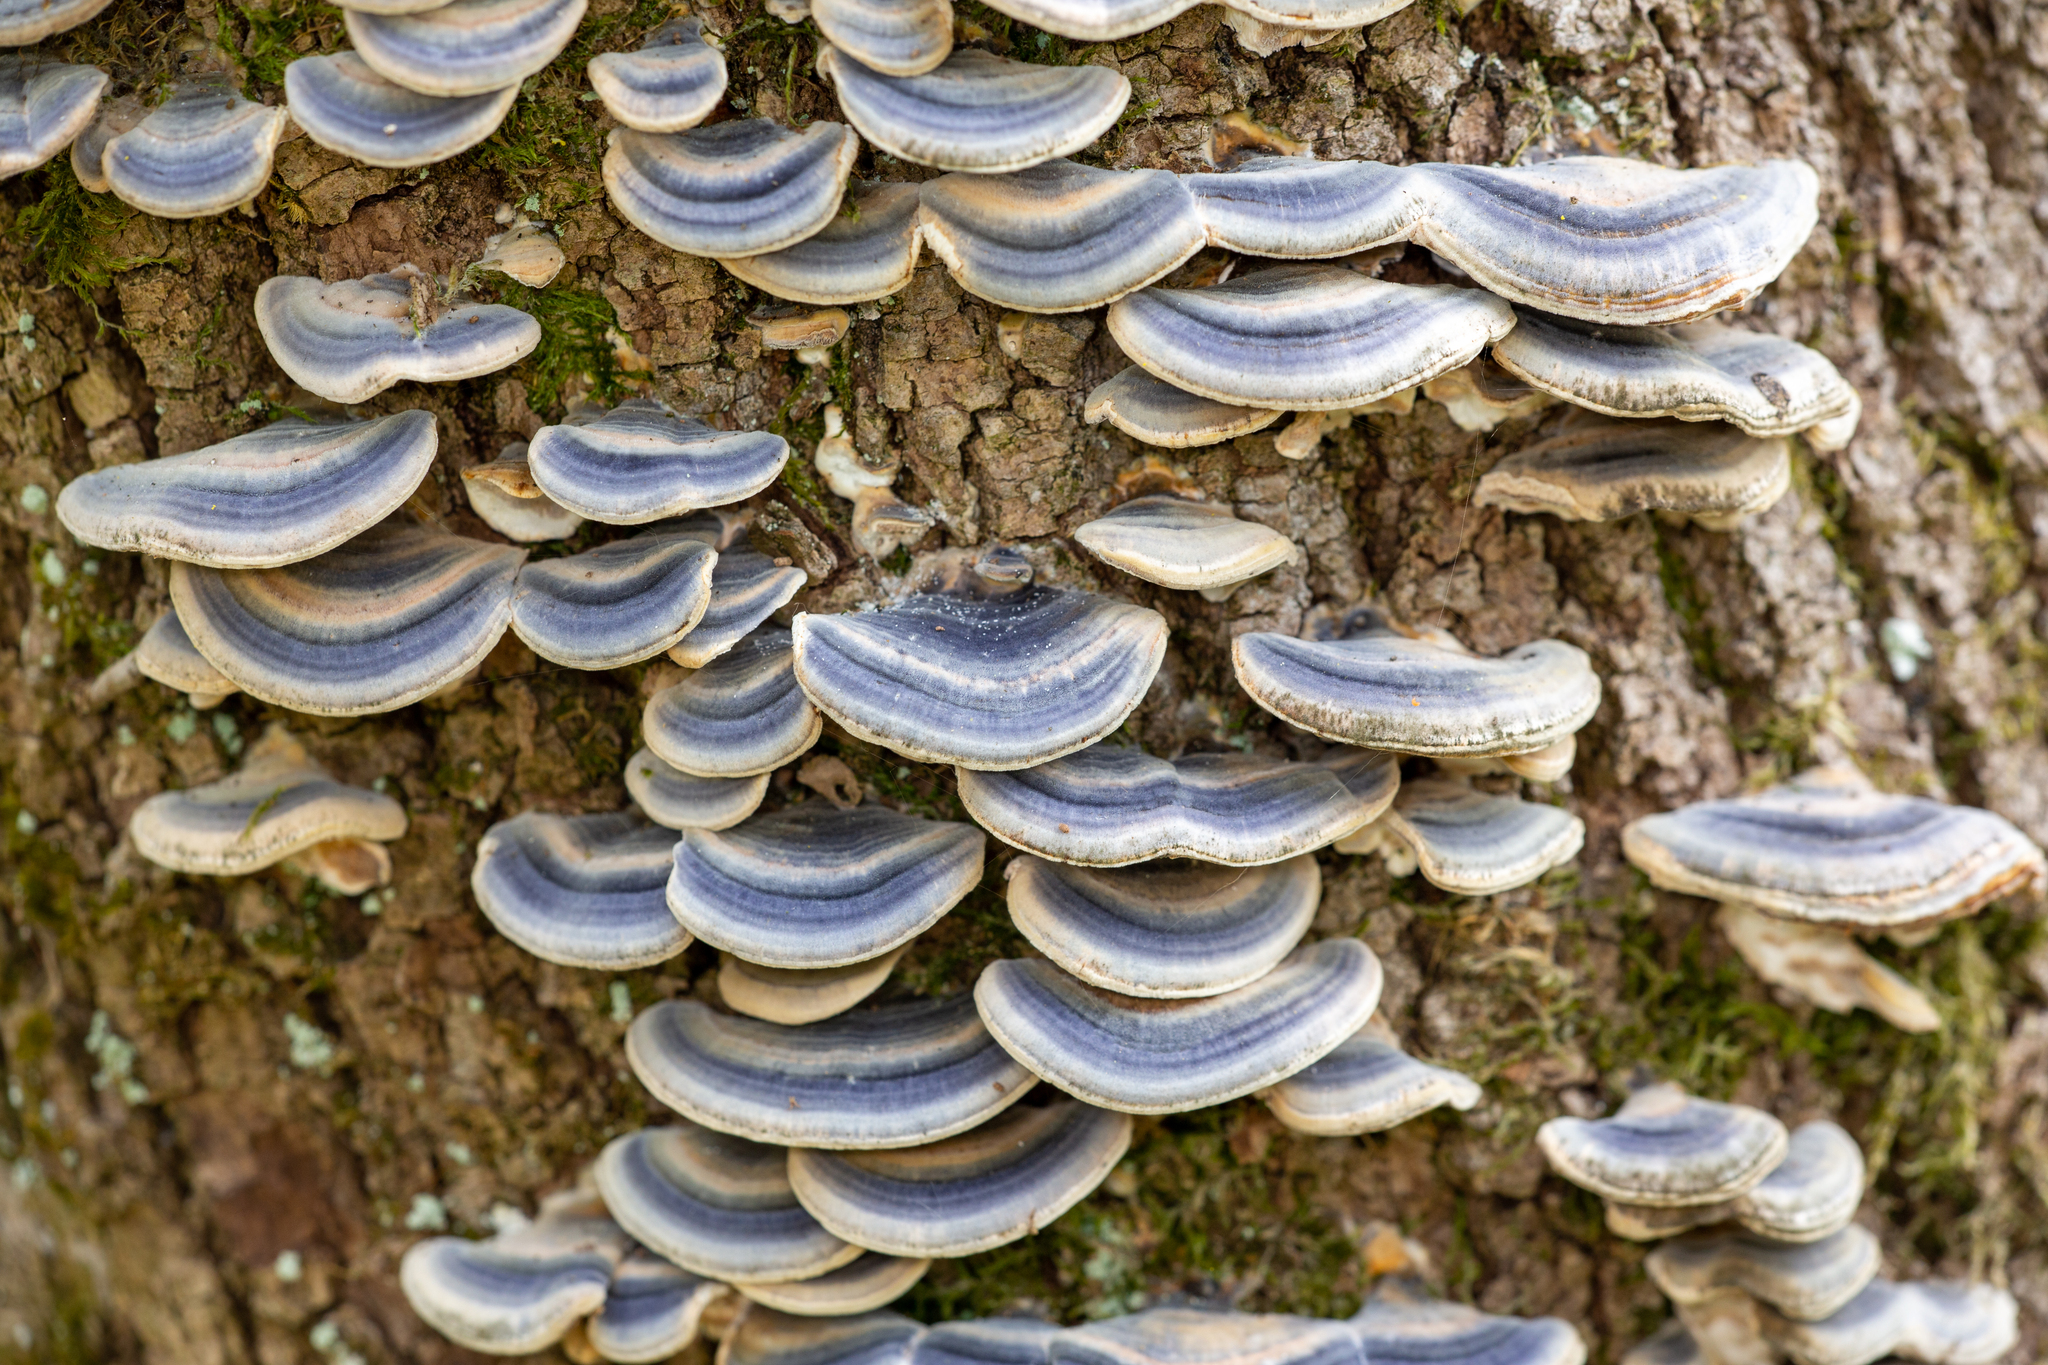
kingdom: Fungi
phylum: Basidiomycota
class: Agaricomycetes
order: Polyporales
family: Polyporaceae
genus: Trametes
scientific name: Trametes versicolor
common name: Turkeytail
